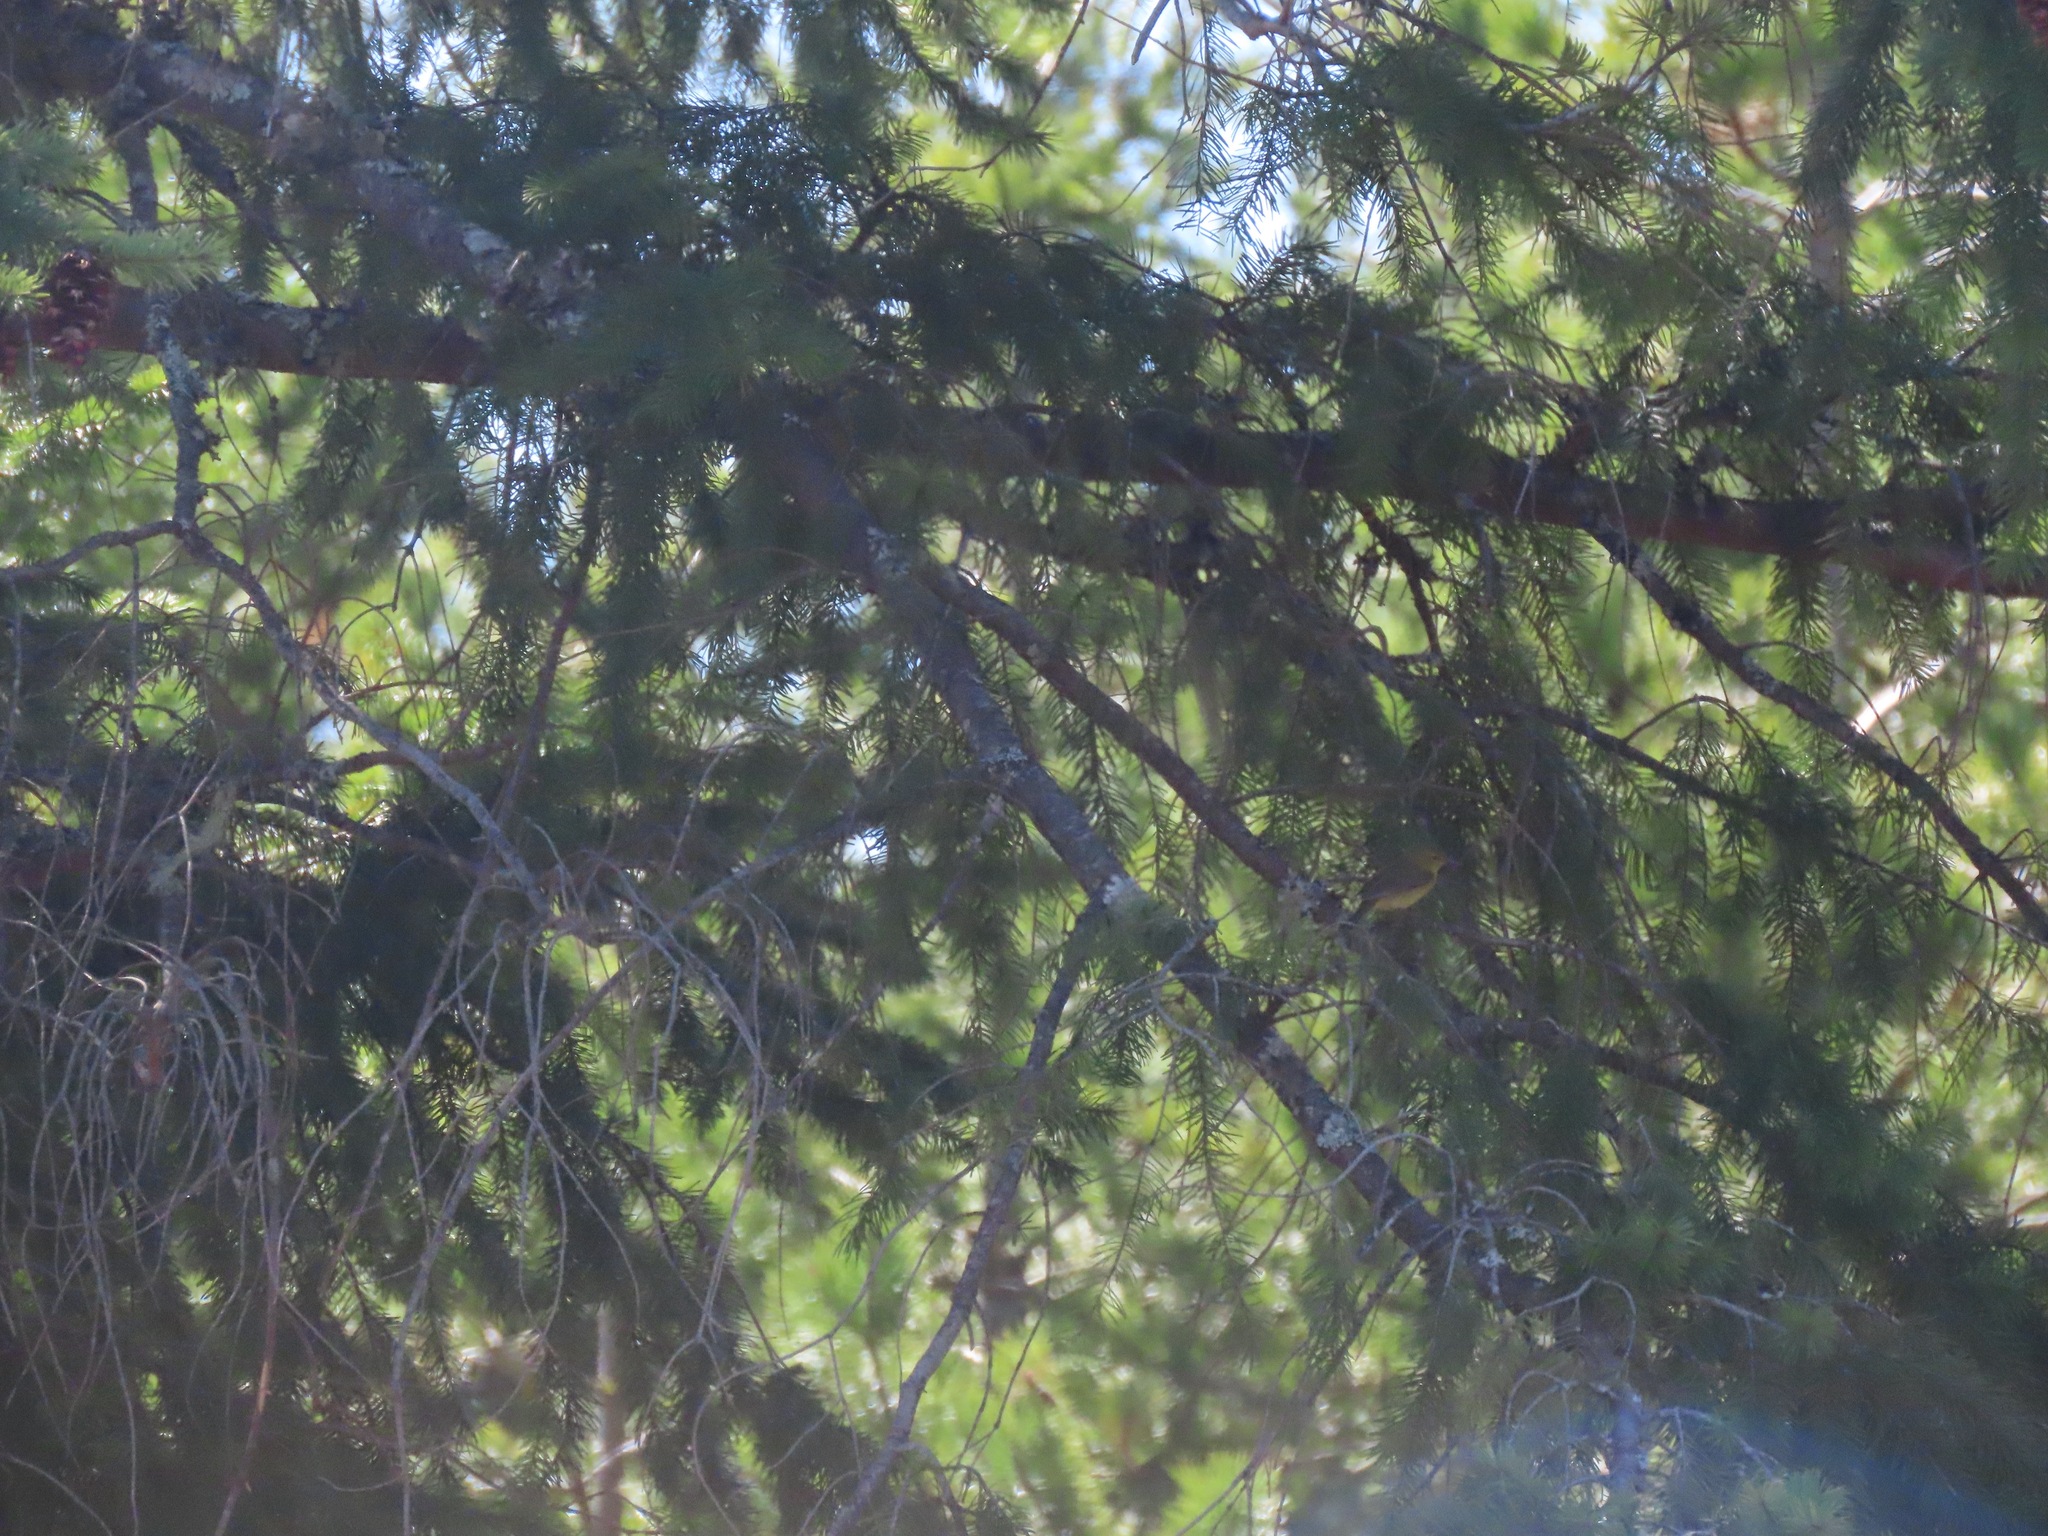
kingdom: Animalia
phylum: Chordata
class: Aves
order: Passeriformes
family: Parulidae
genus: Leiothlypis
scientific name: Leiothlypis celata
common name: Orange-crowned warbler
